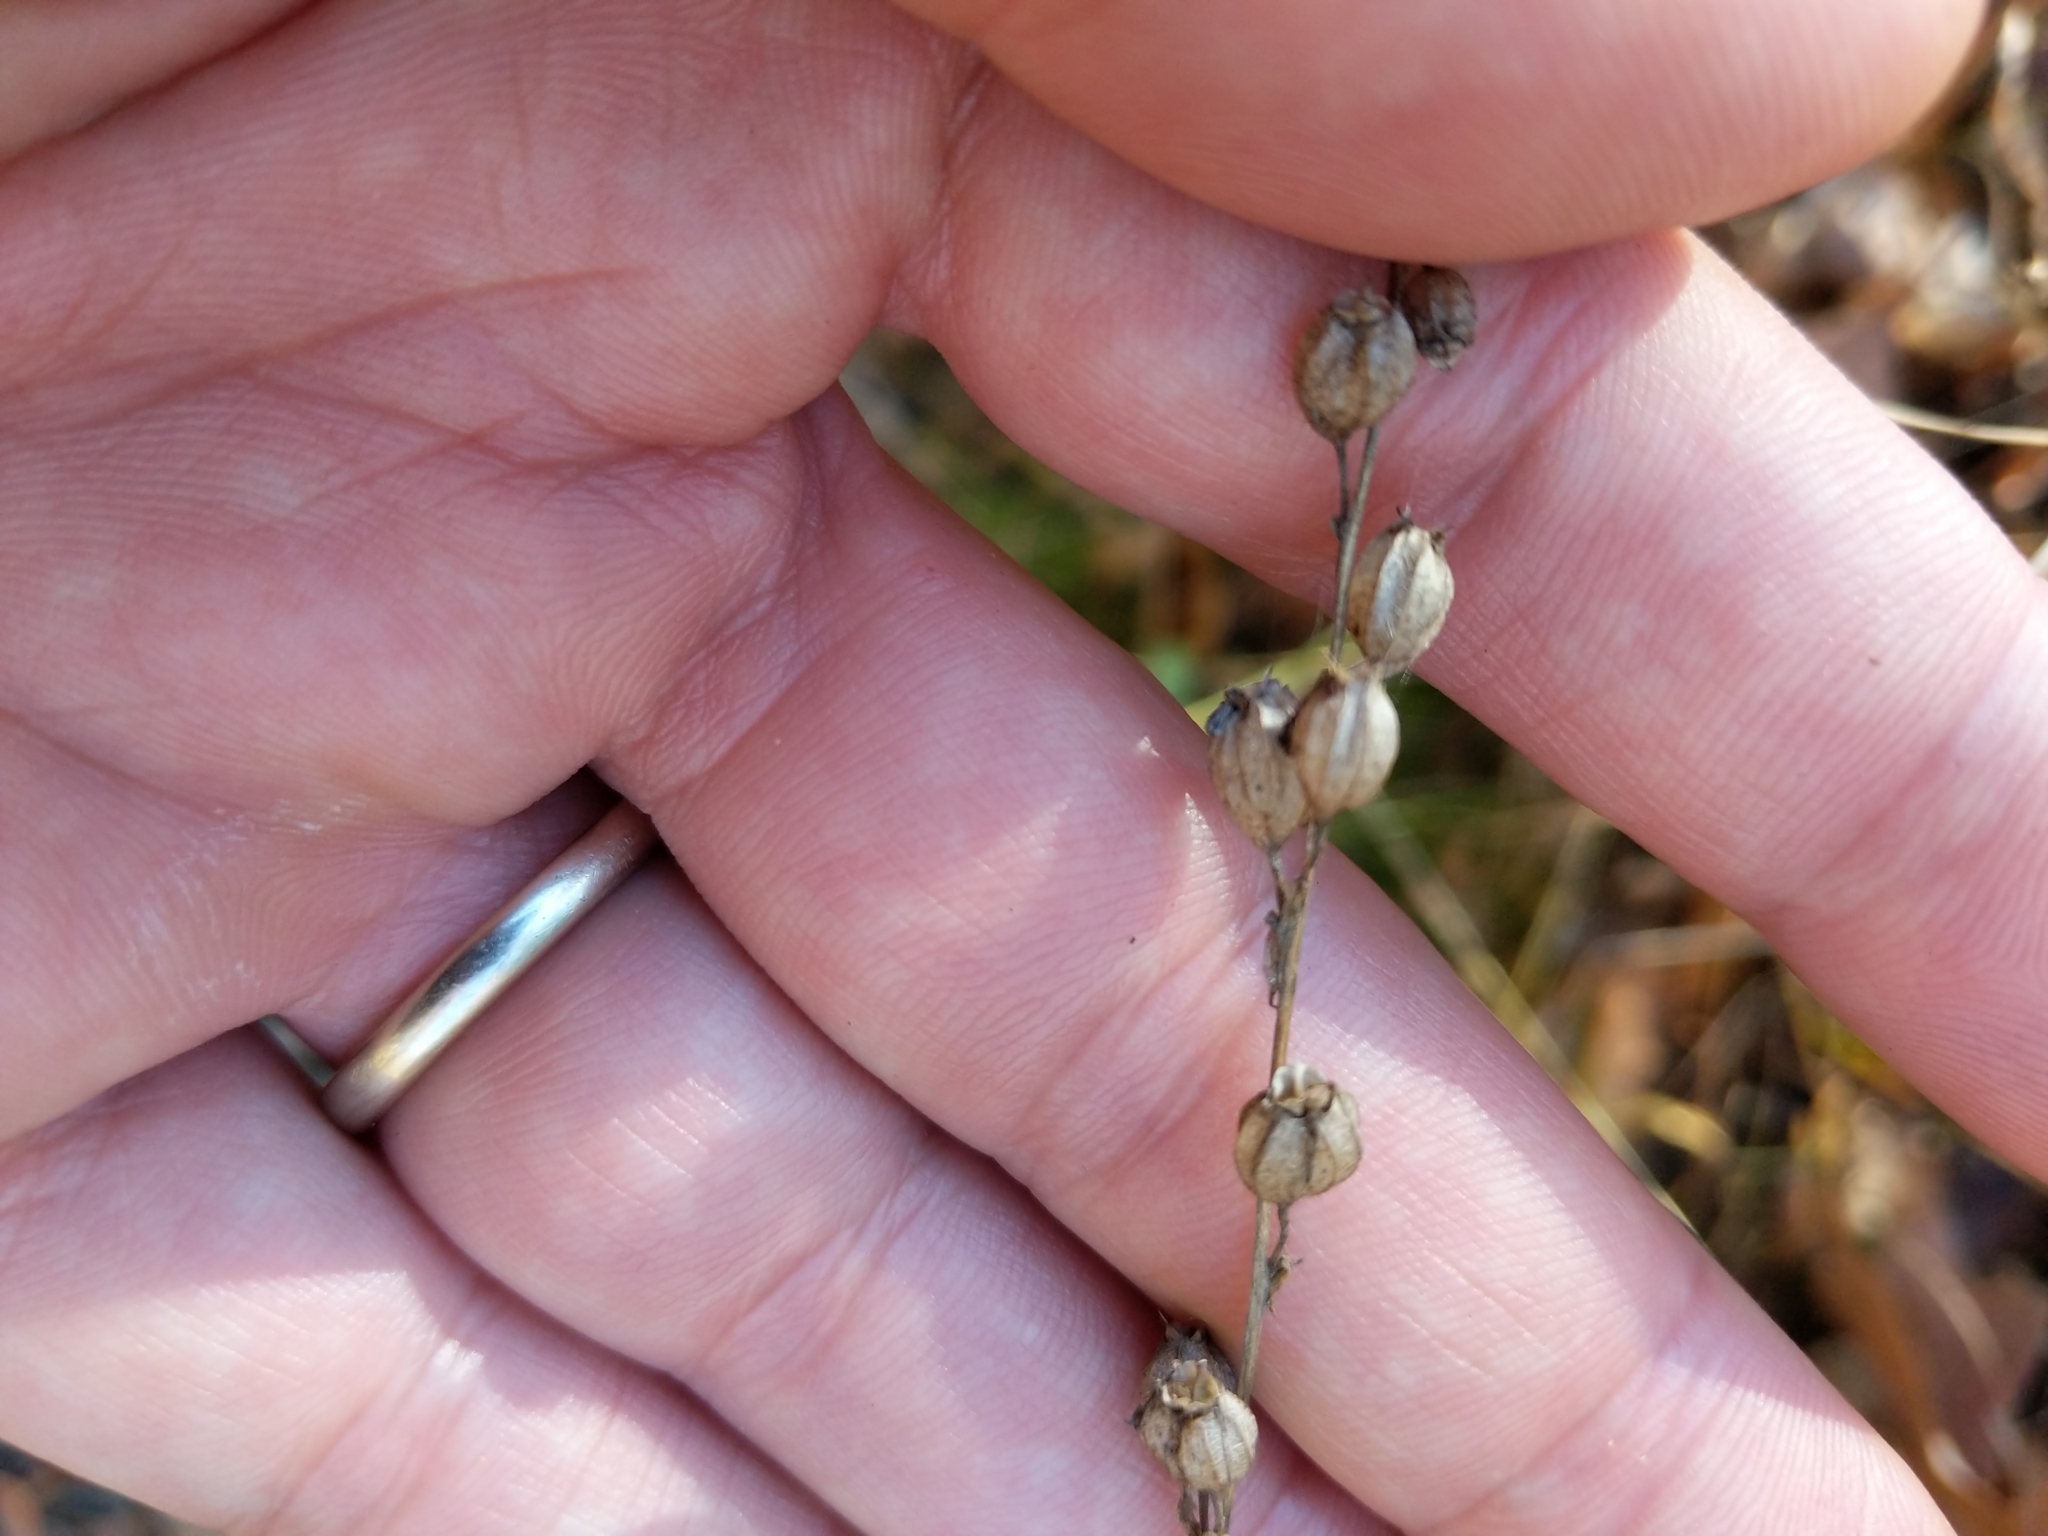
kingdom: Plantae
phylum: Tracheophyta
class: Magnoliopsida
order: Asterales
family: Campanulaceae
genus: Lobelia
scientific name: Lobelia inflata
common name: Indian tobacco
